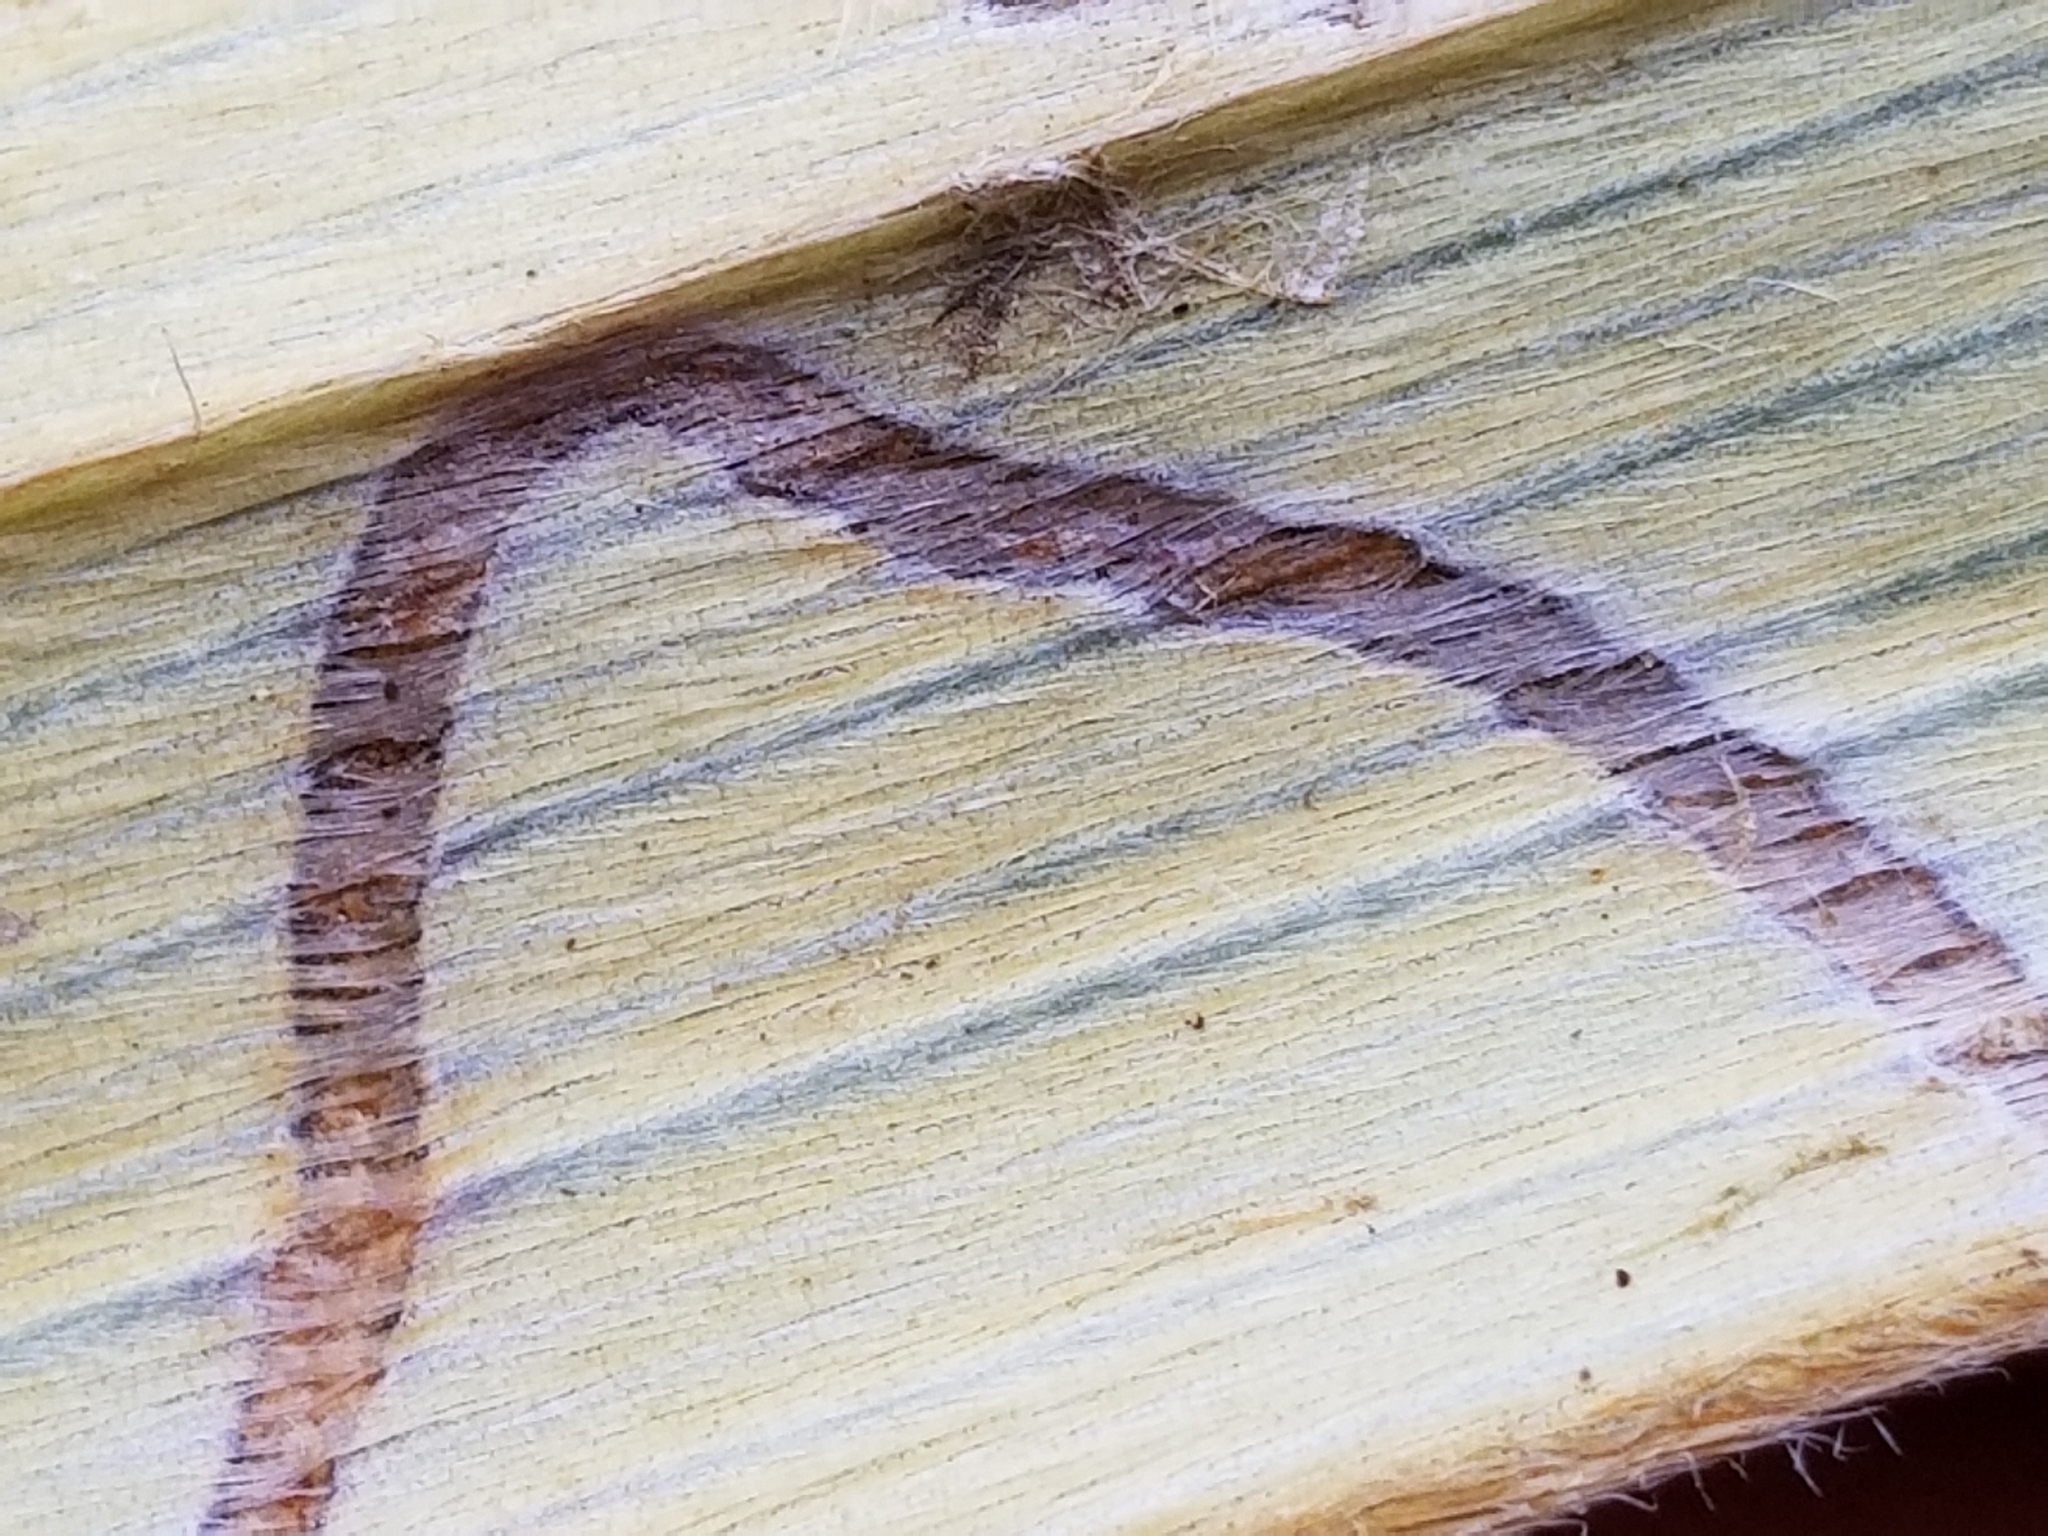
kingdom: Animalia
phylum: Arthropoda
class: Insecta
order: Lepidoptera
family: Plutellidae
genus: Charixena
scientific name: Charixena iridoxa
